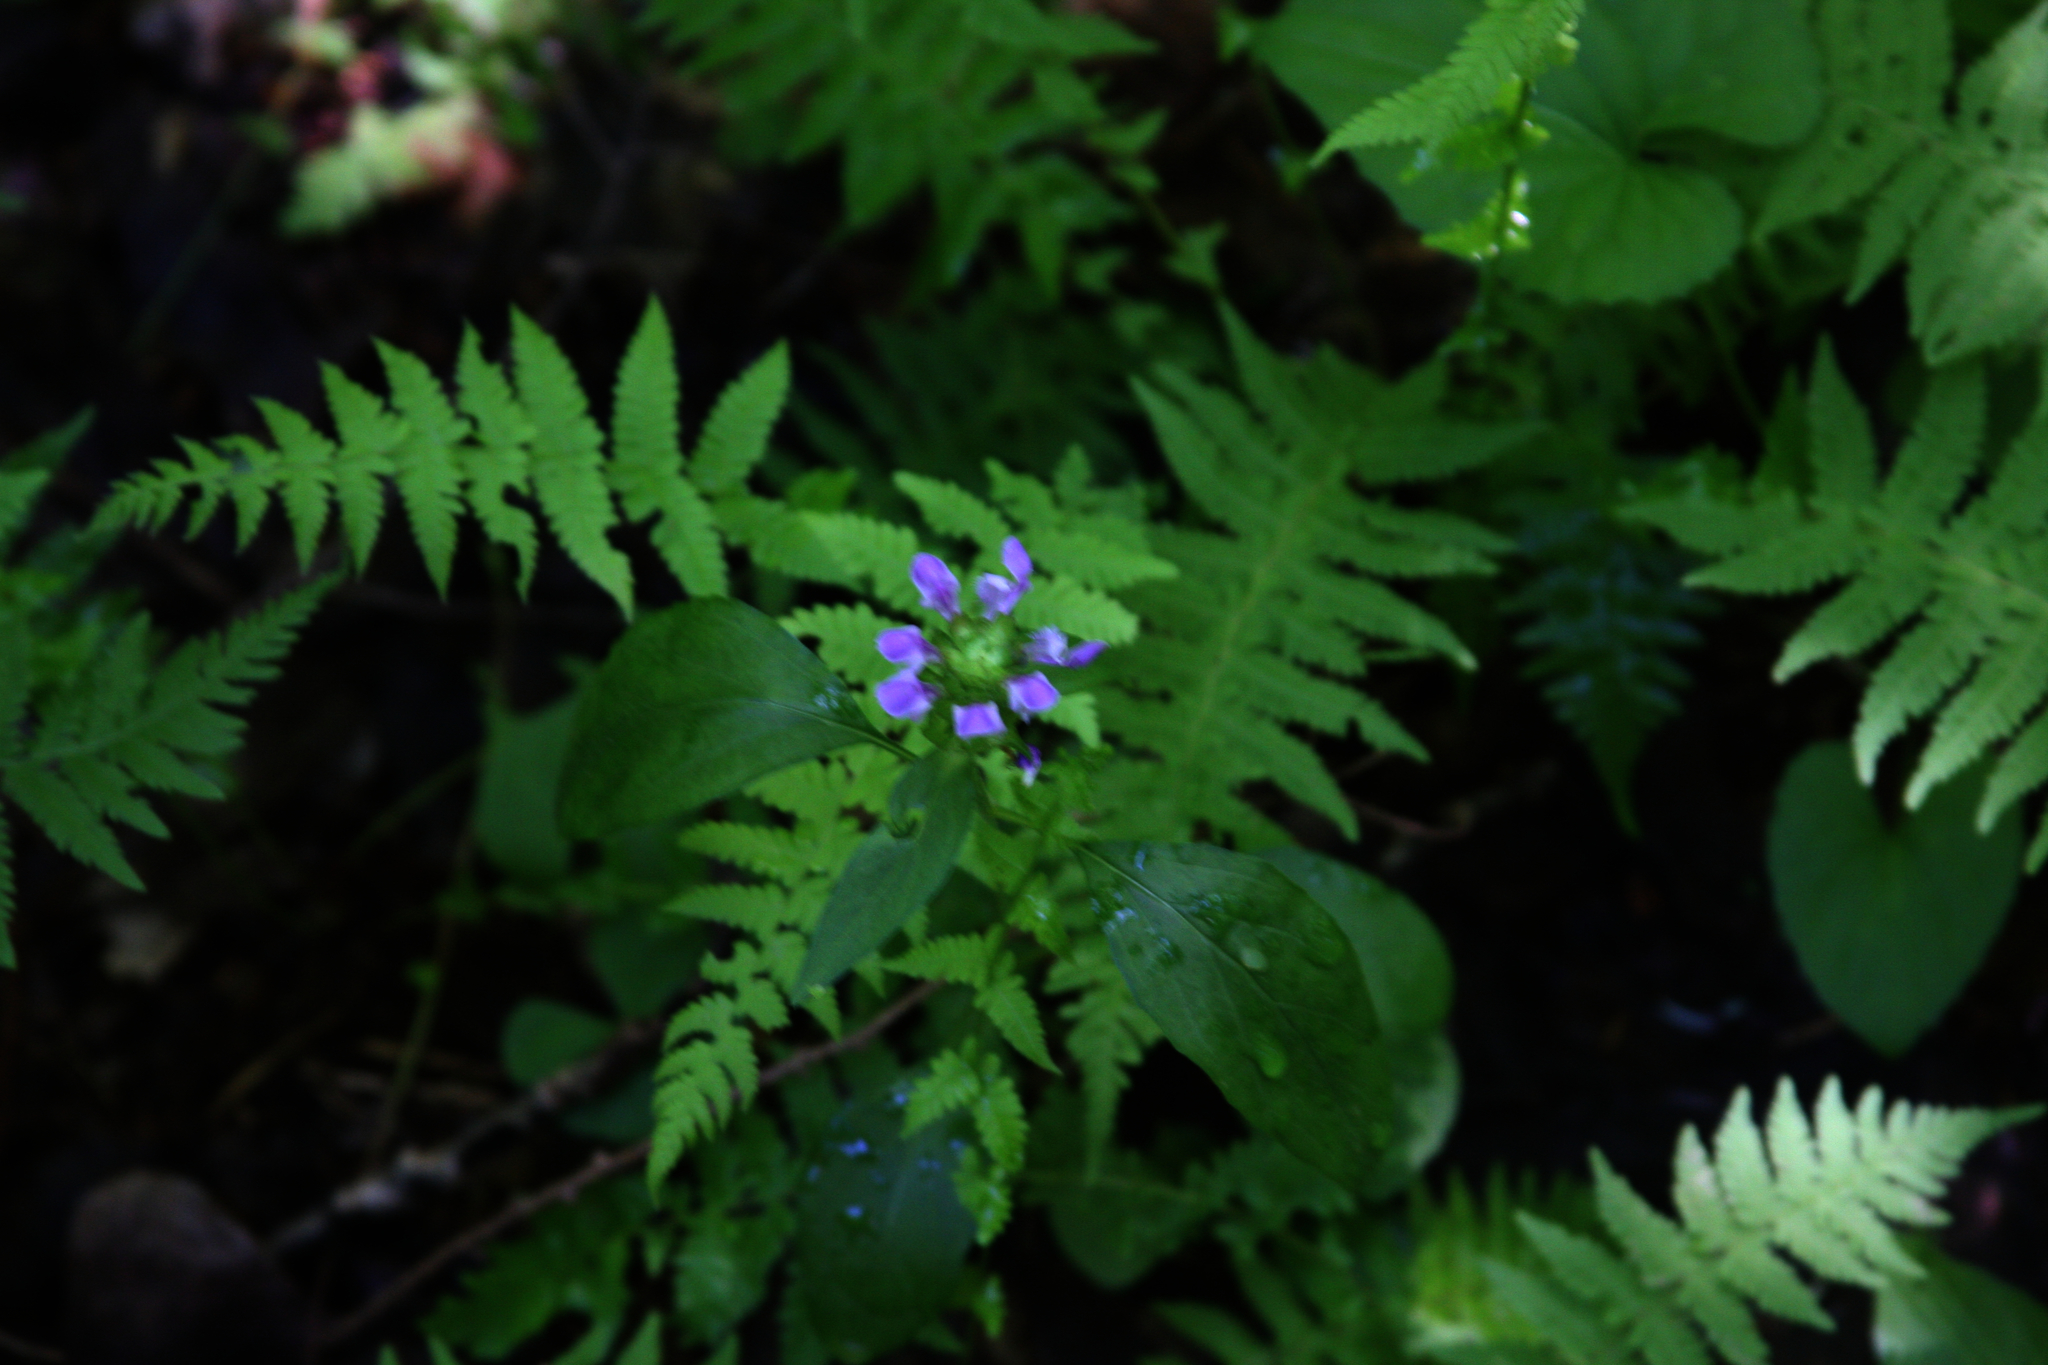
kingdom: Plantae
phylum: Tracheophyta
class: Magnoliopsida
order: Lamiales
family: Lamiaceae
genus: Prunella
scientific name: Prunella vulgaris
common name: Heal-all
